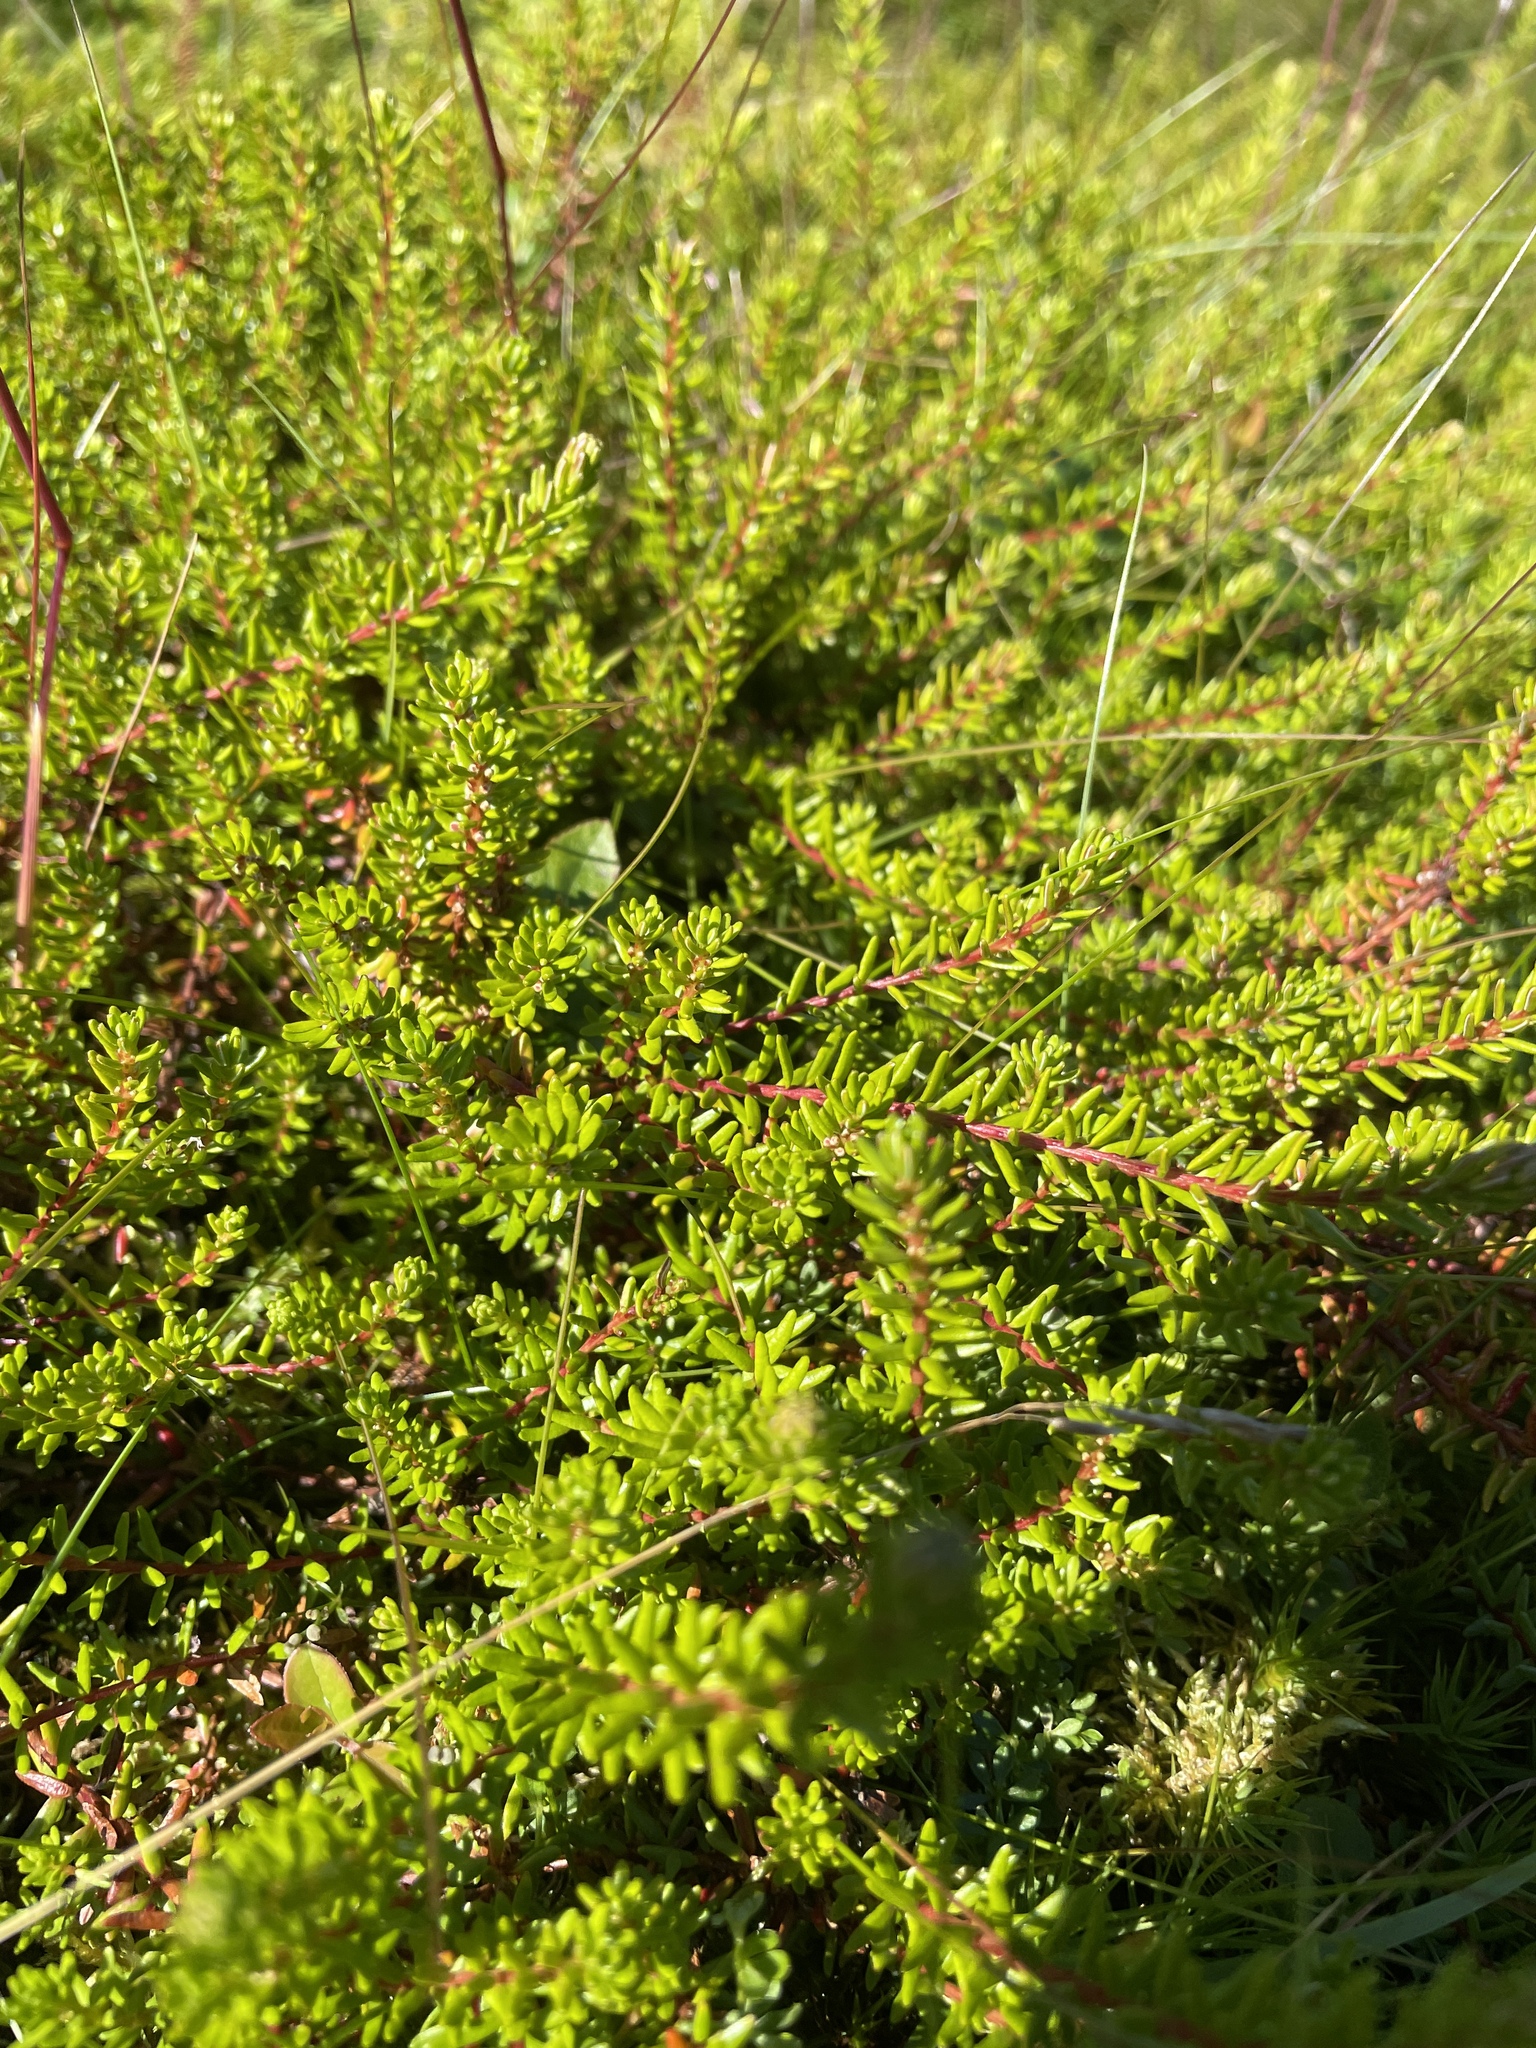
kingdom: Plantae
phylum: Tracheophyta
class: Magnoliopsida
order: Ericales
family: Ericaceae
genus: Empetrum
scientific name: Empetrum nigrum
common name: Black crowberry
